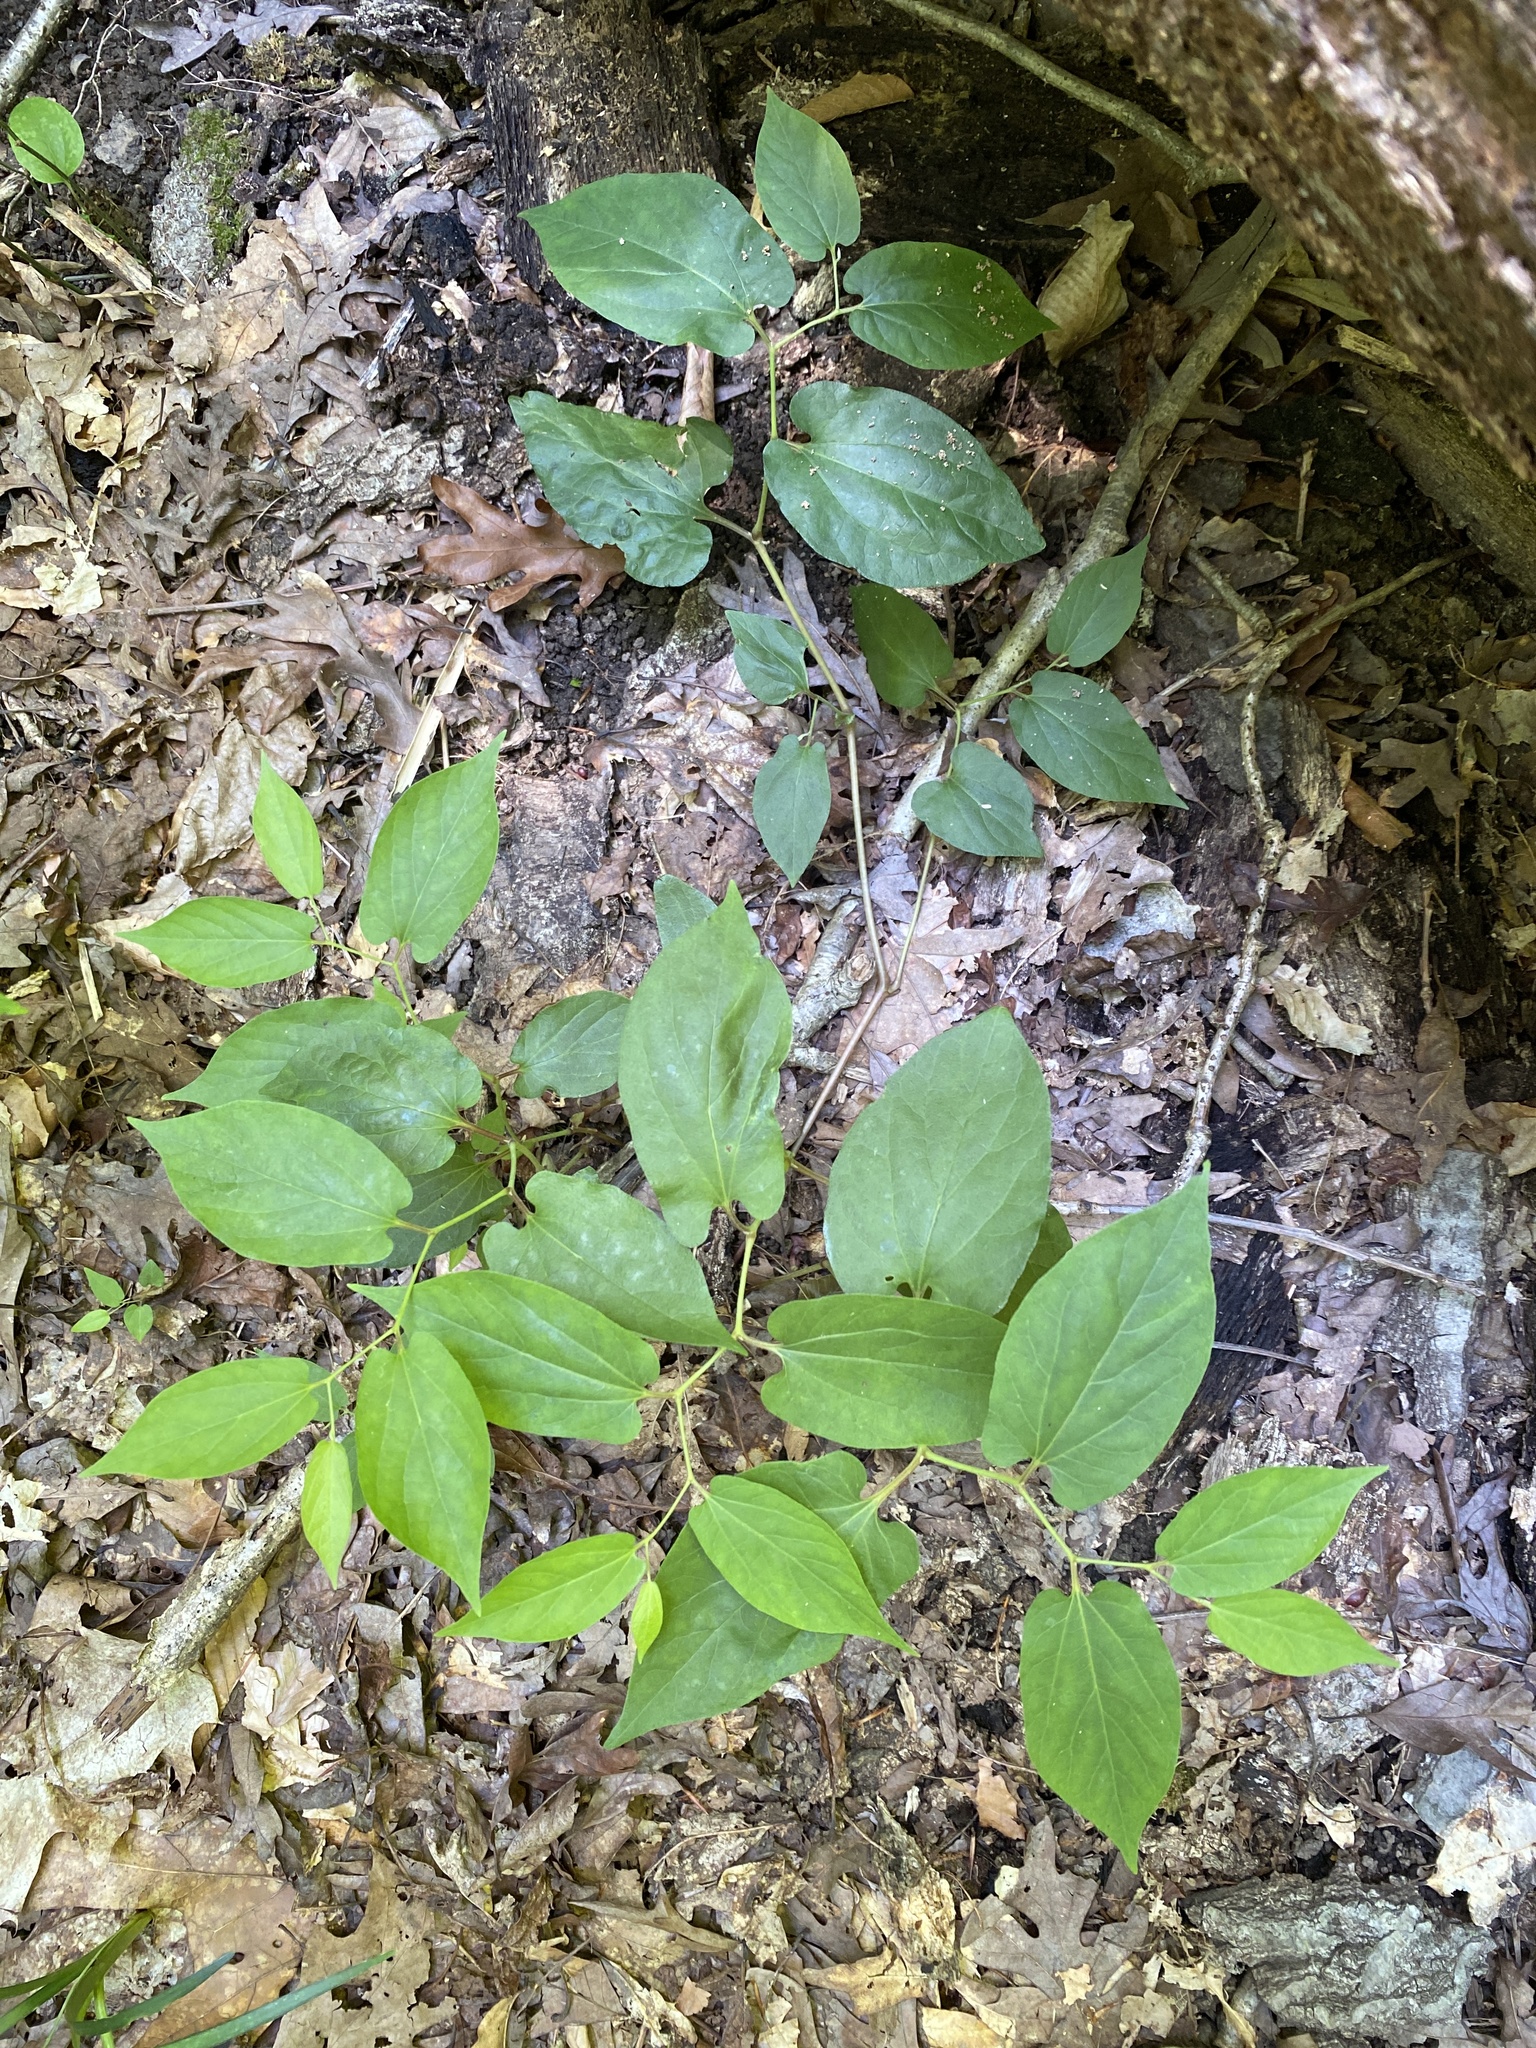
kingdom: Plantae
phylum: Tracheophyta
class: Magnoliopsida
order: Piperales
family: Aristolochiaceae
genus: Endodeca
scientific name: Endodeca serpentaria
